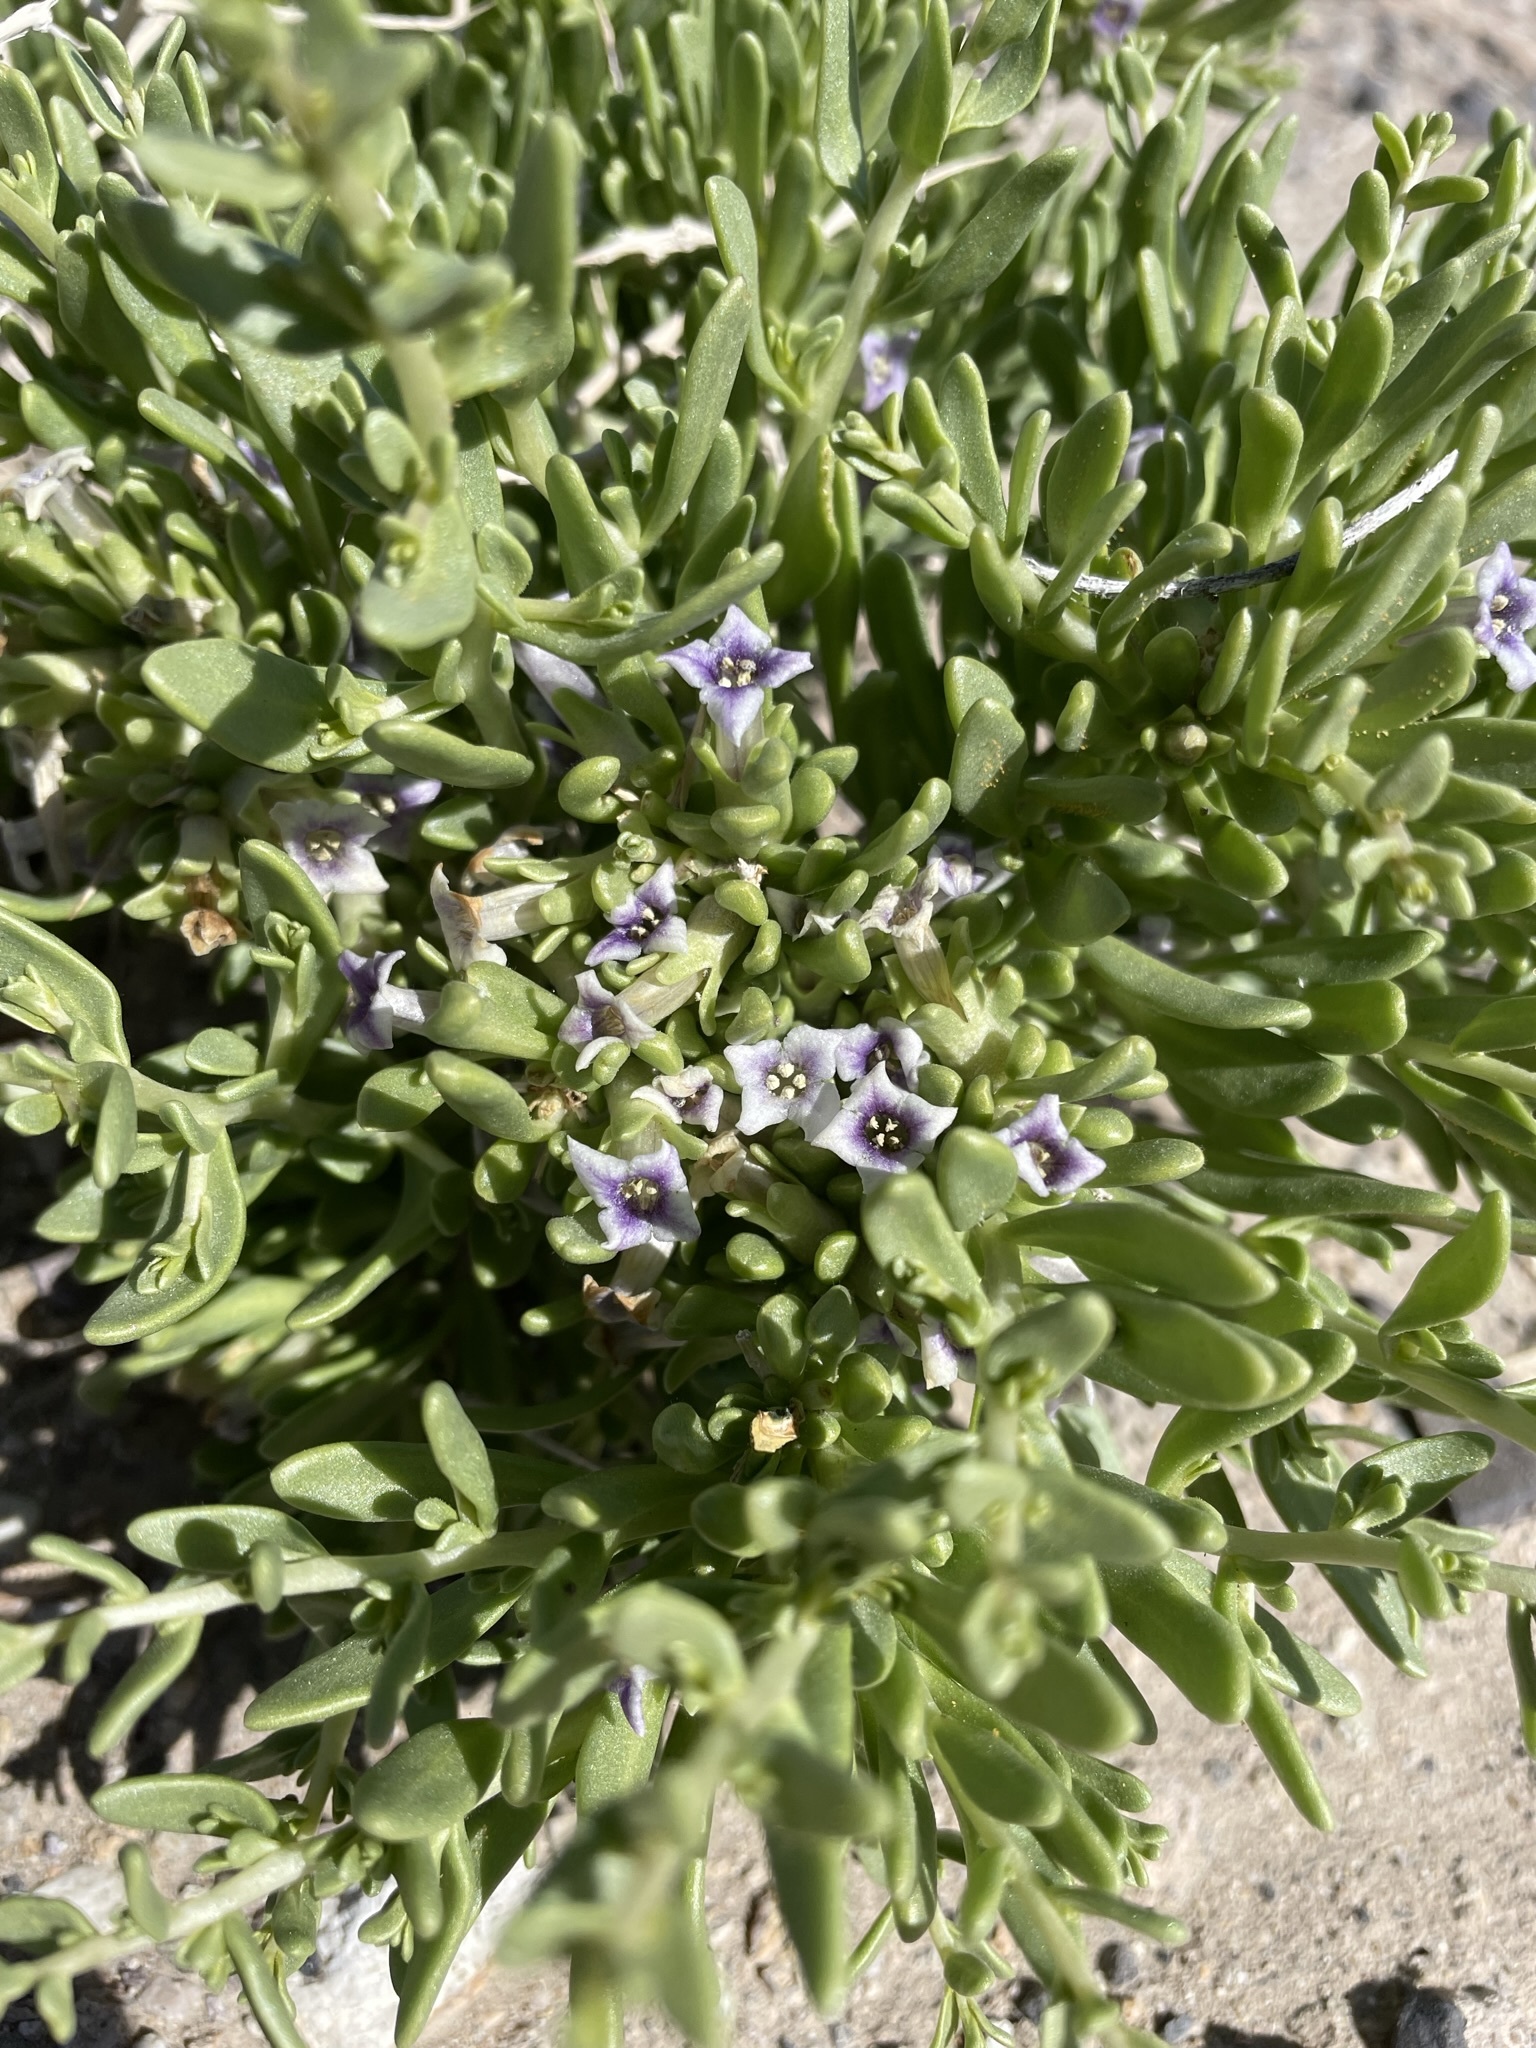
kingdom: Plantae
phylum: Tracheophyta
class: Magnoliopsida
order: Solanales
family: Solanaceae
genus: Lycium
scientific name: Lycium shockleyi
